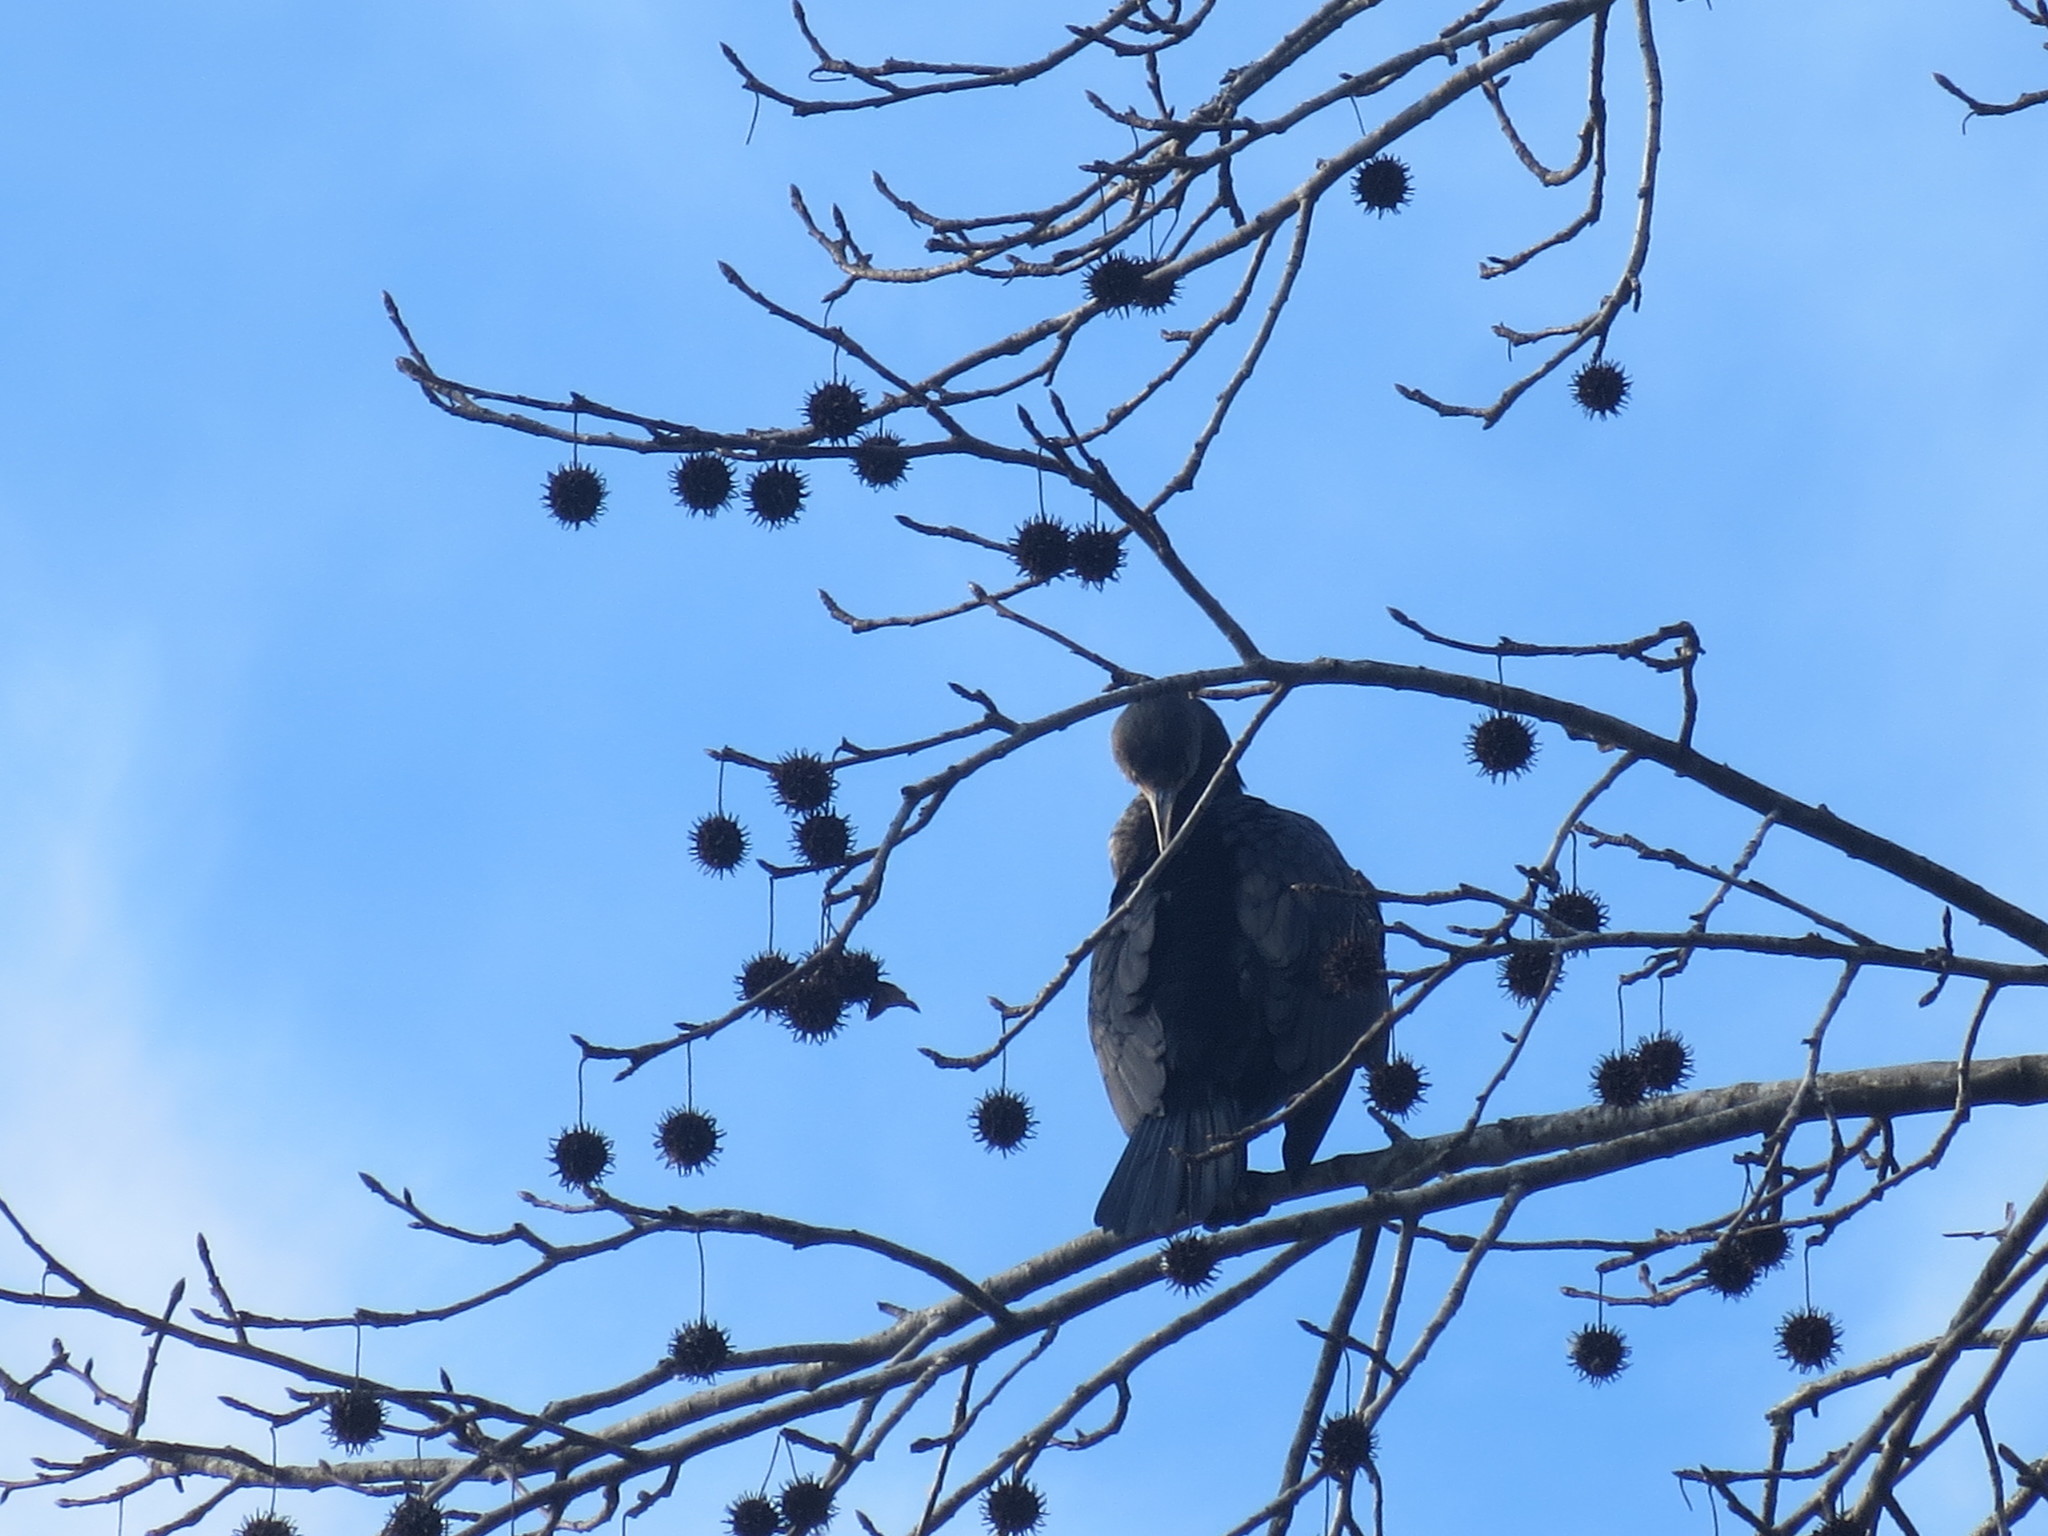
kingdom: Animalia
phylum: Chordata
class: Aves
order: Suliformes
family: Phalacrocoracidae
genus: Phalacrocorax
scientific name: Phalacrocorax auritus
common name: Double-crested cormorant
